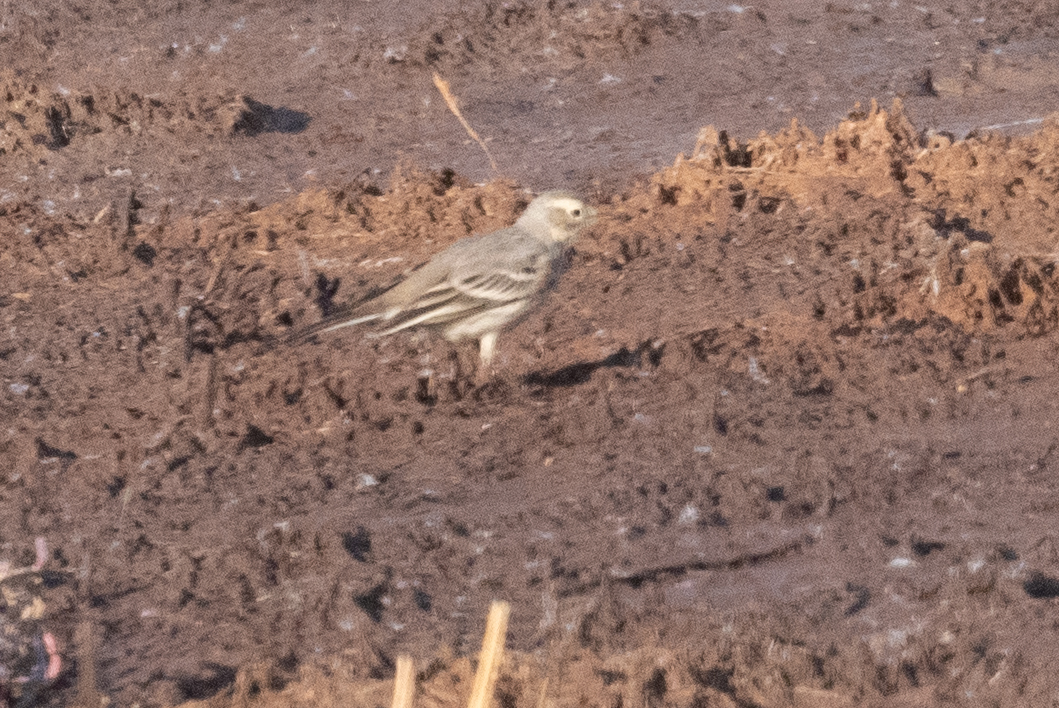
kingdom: Animalia
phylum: Chordata
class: Aves
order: Passeriformes
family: Motacillidae
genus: Anthus
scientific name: Anthus rubescens
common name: Buff-bellied pipit
